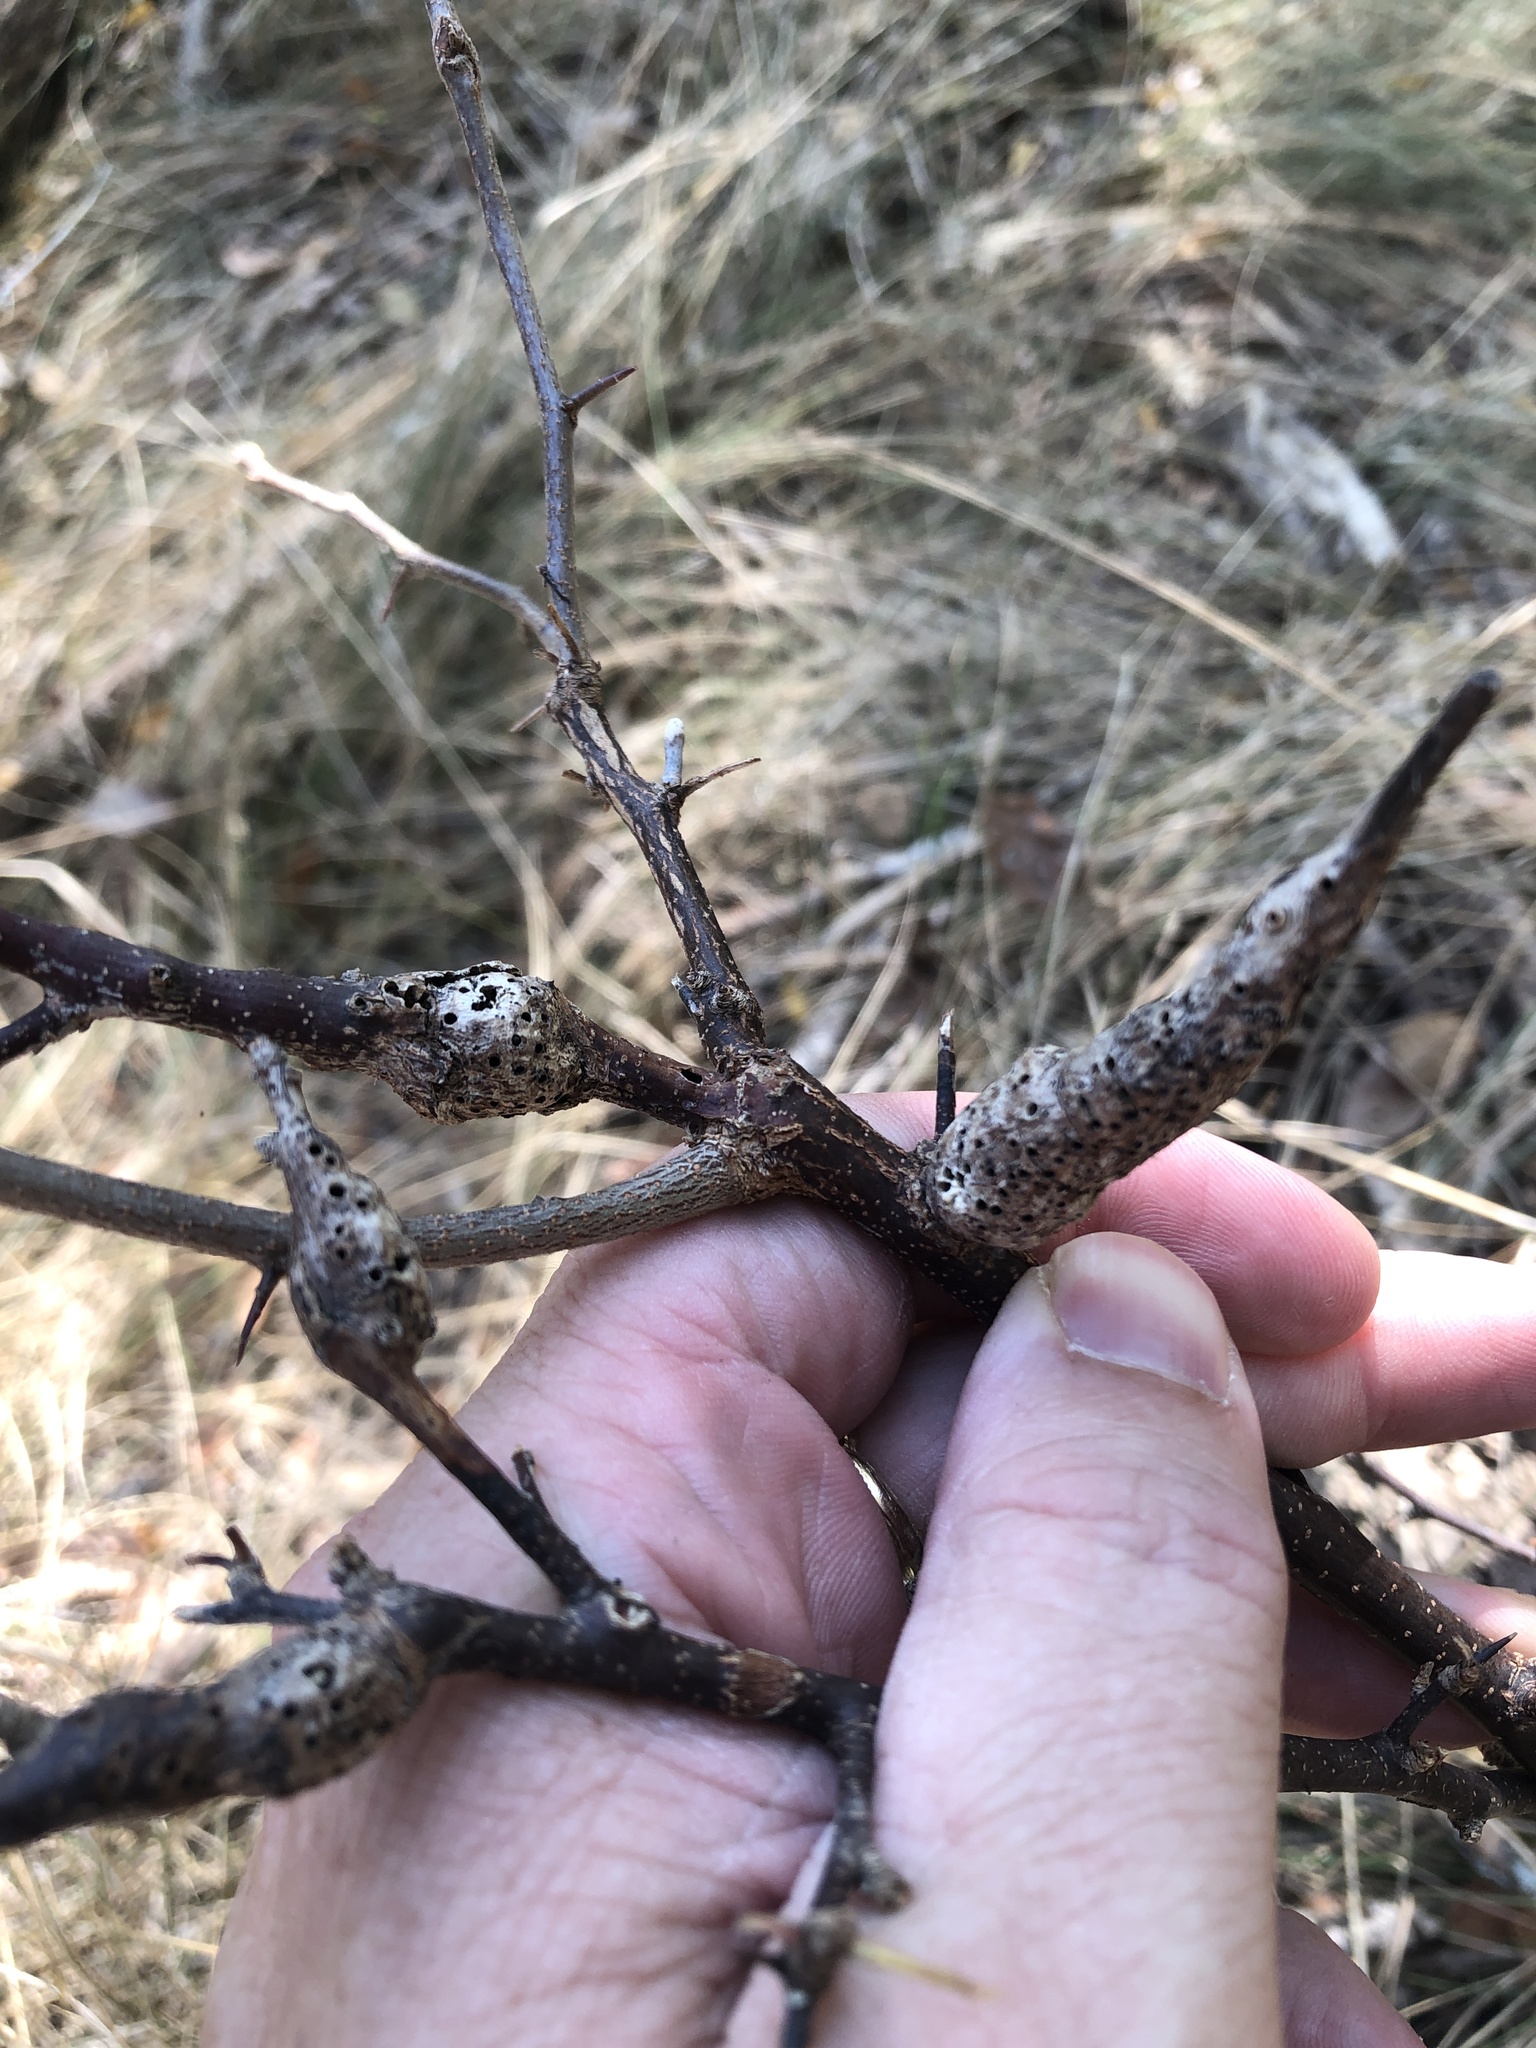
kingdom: Animalia
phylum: Arthropoda
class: Insecta
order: Diptera
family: Cecidomyiidae
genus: Bruggmanniella
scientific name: Bruggmanniella bumeliae
